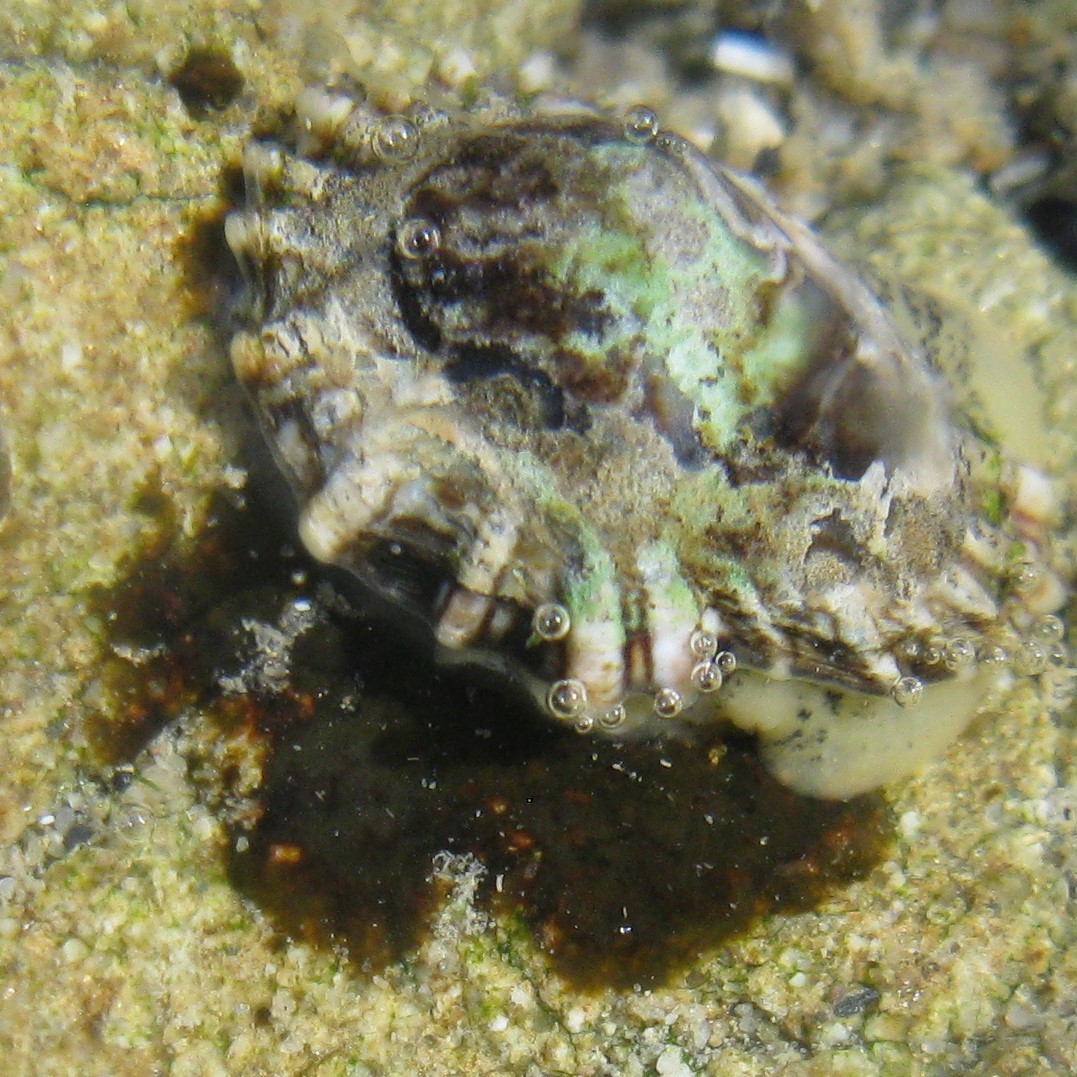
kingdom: Animalia
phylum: Mollusca
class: Gastropoda
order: Siphonariida
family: Siphonariidae
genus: Siphonaria
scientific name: Siphonaria australis
